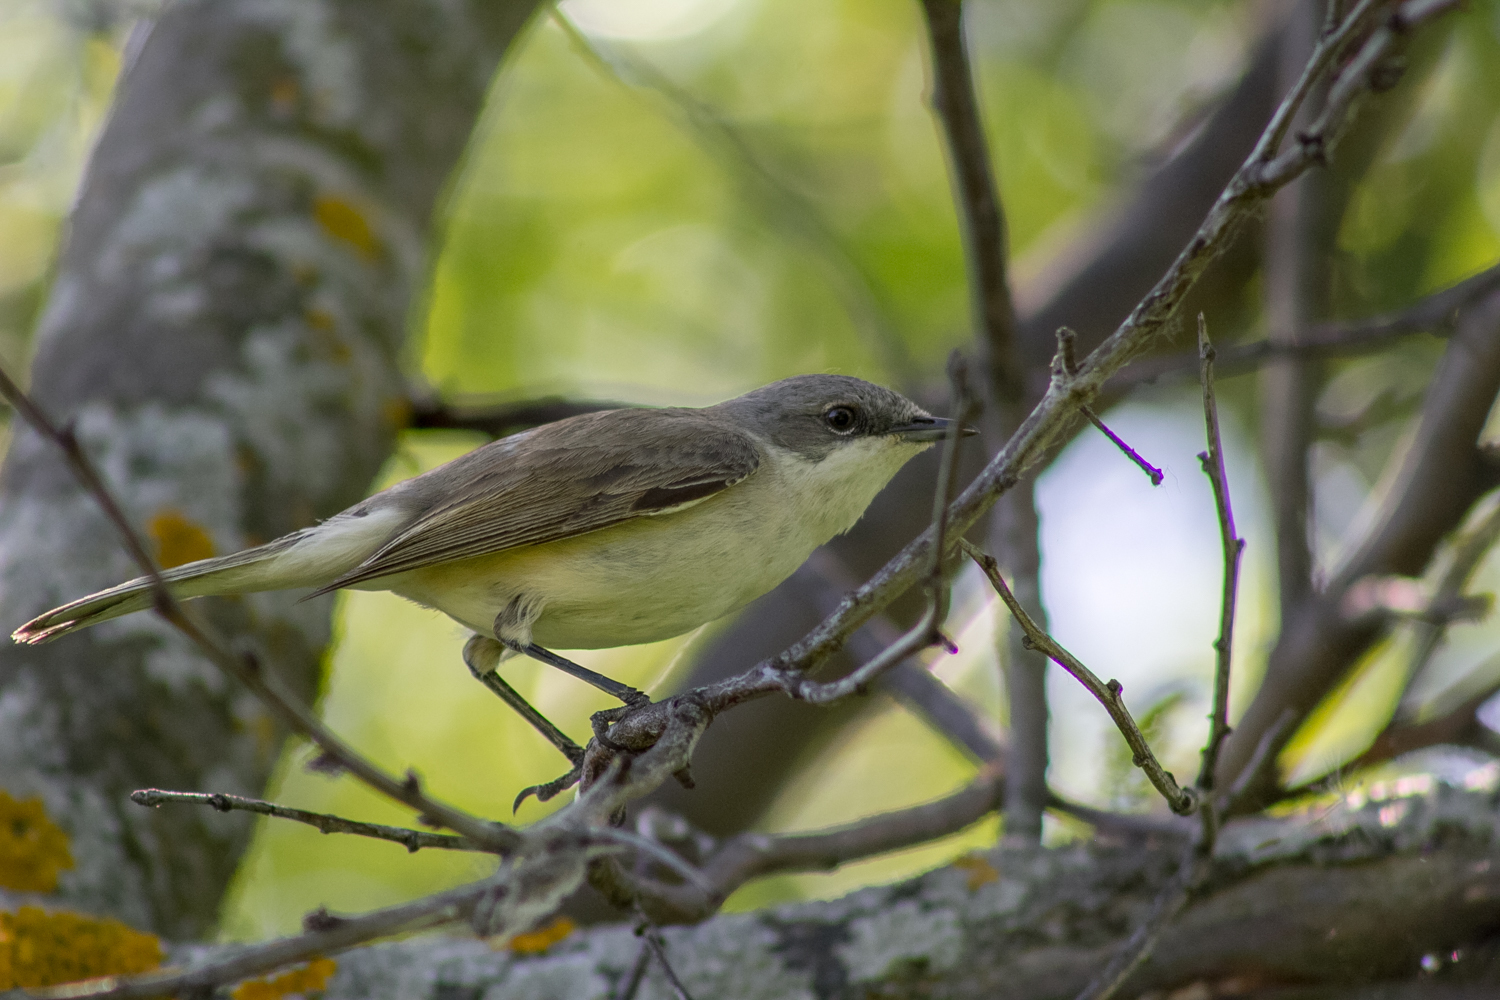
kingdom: Animalia
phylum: Chordata
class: Aves
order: Passeriformes
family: Sylviidae
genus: Sylvia
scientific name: Sylvia curruca
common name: Lesser whitethroat
